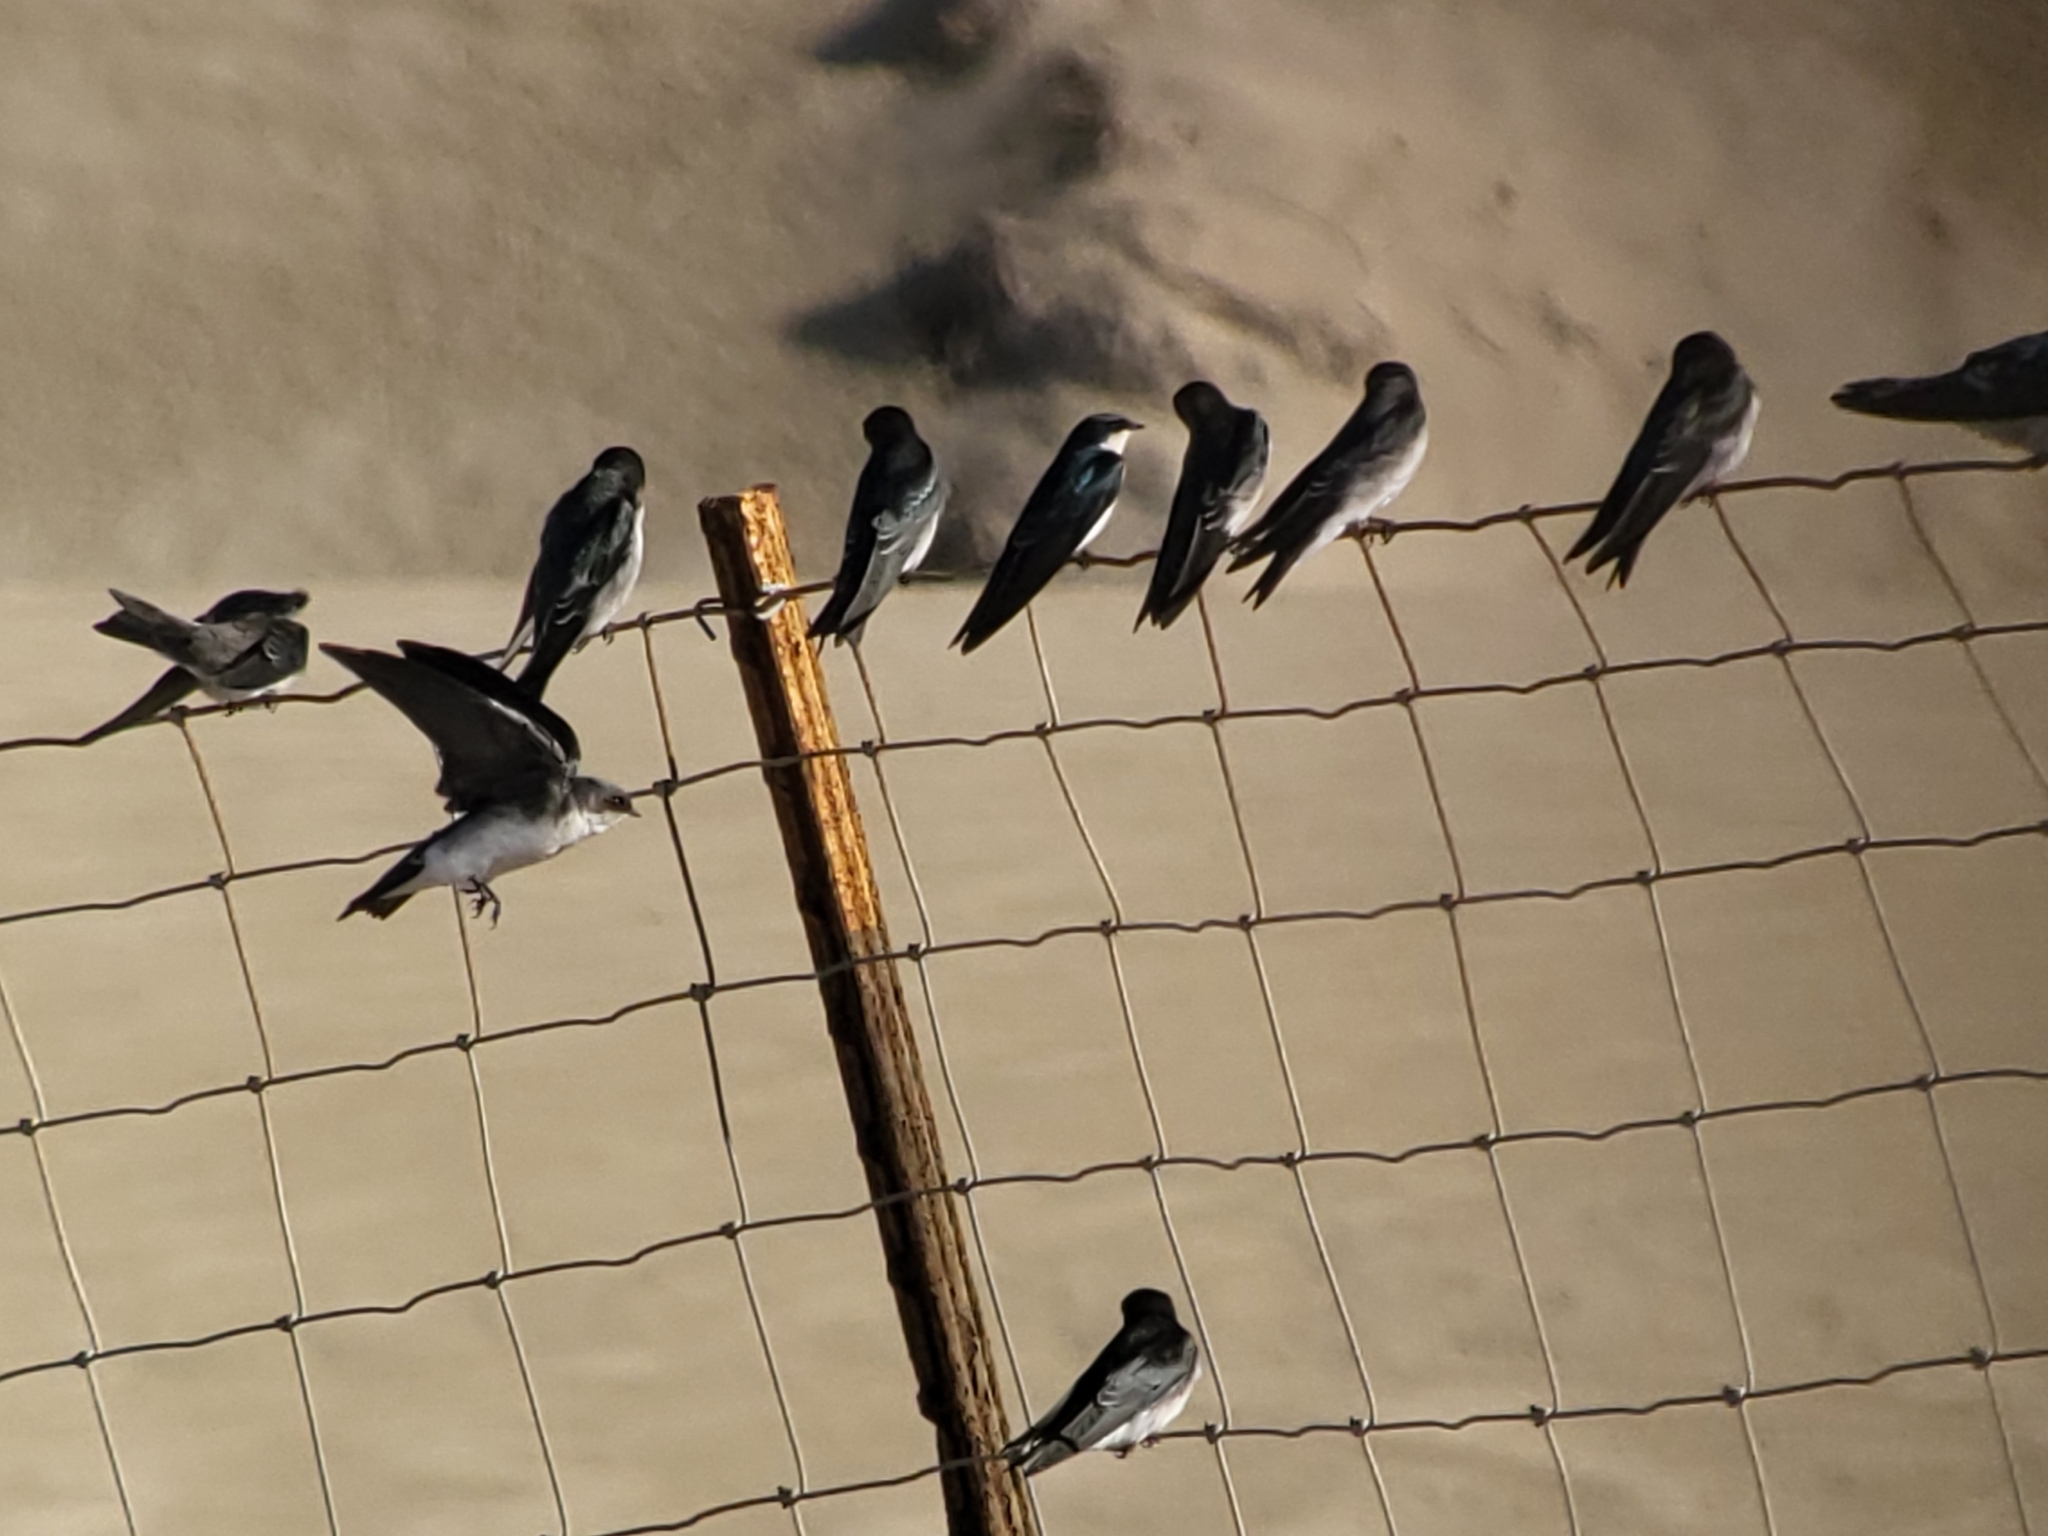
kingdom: Animalia
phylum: Chordata
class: Aves
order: Passeriformes
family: Hirundinidae
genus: Tachycineta
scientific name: Tachycineta bicolor
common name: Tree swallow
